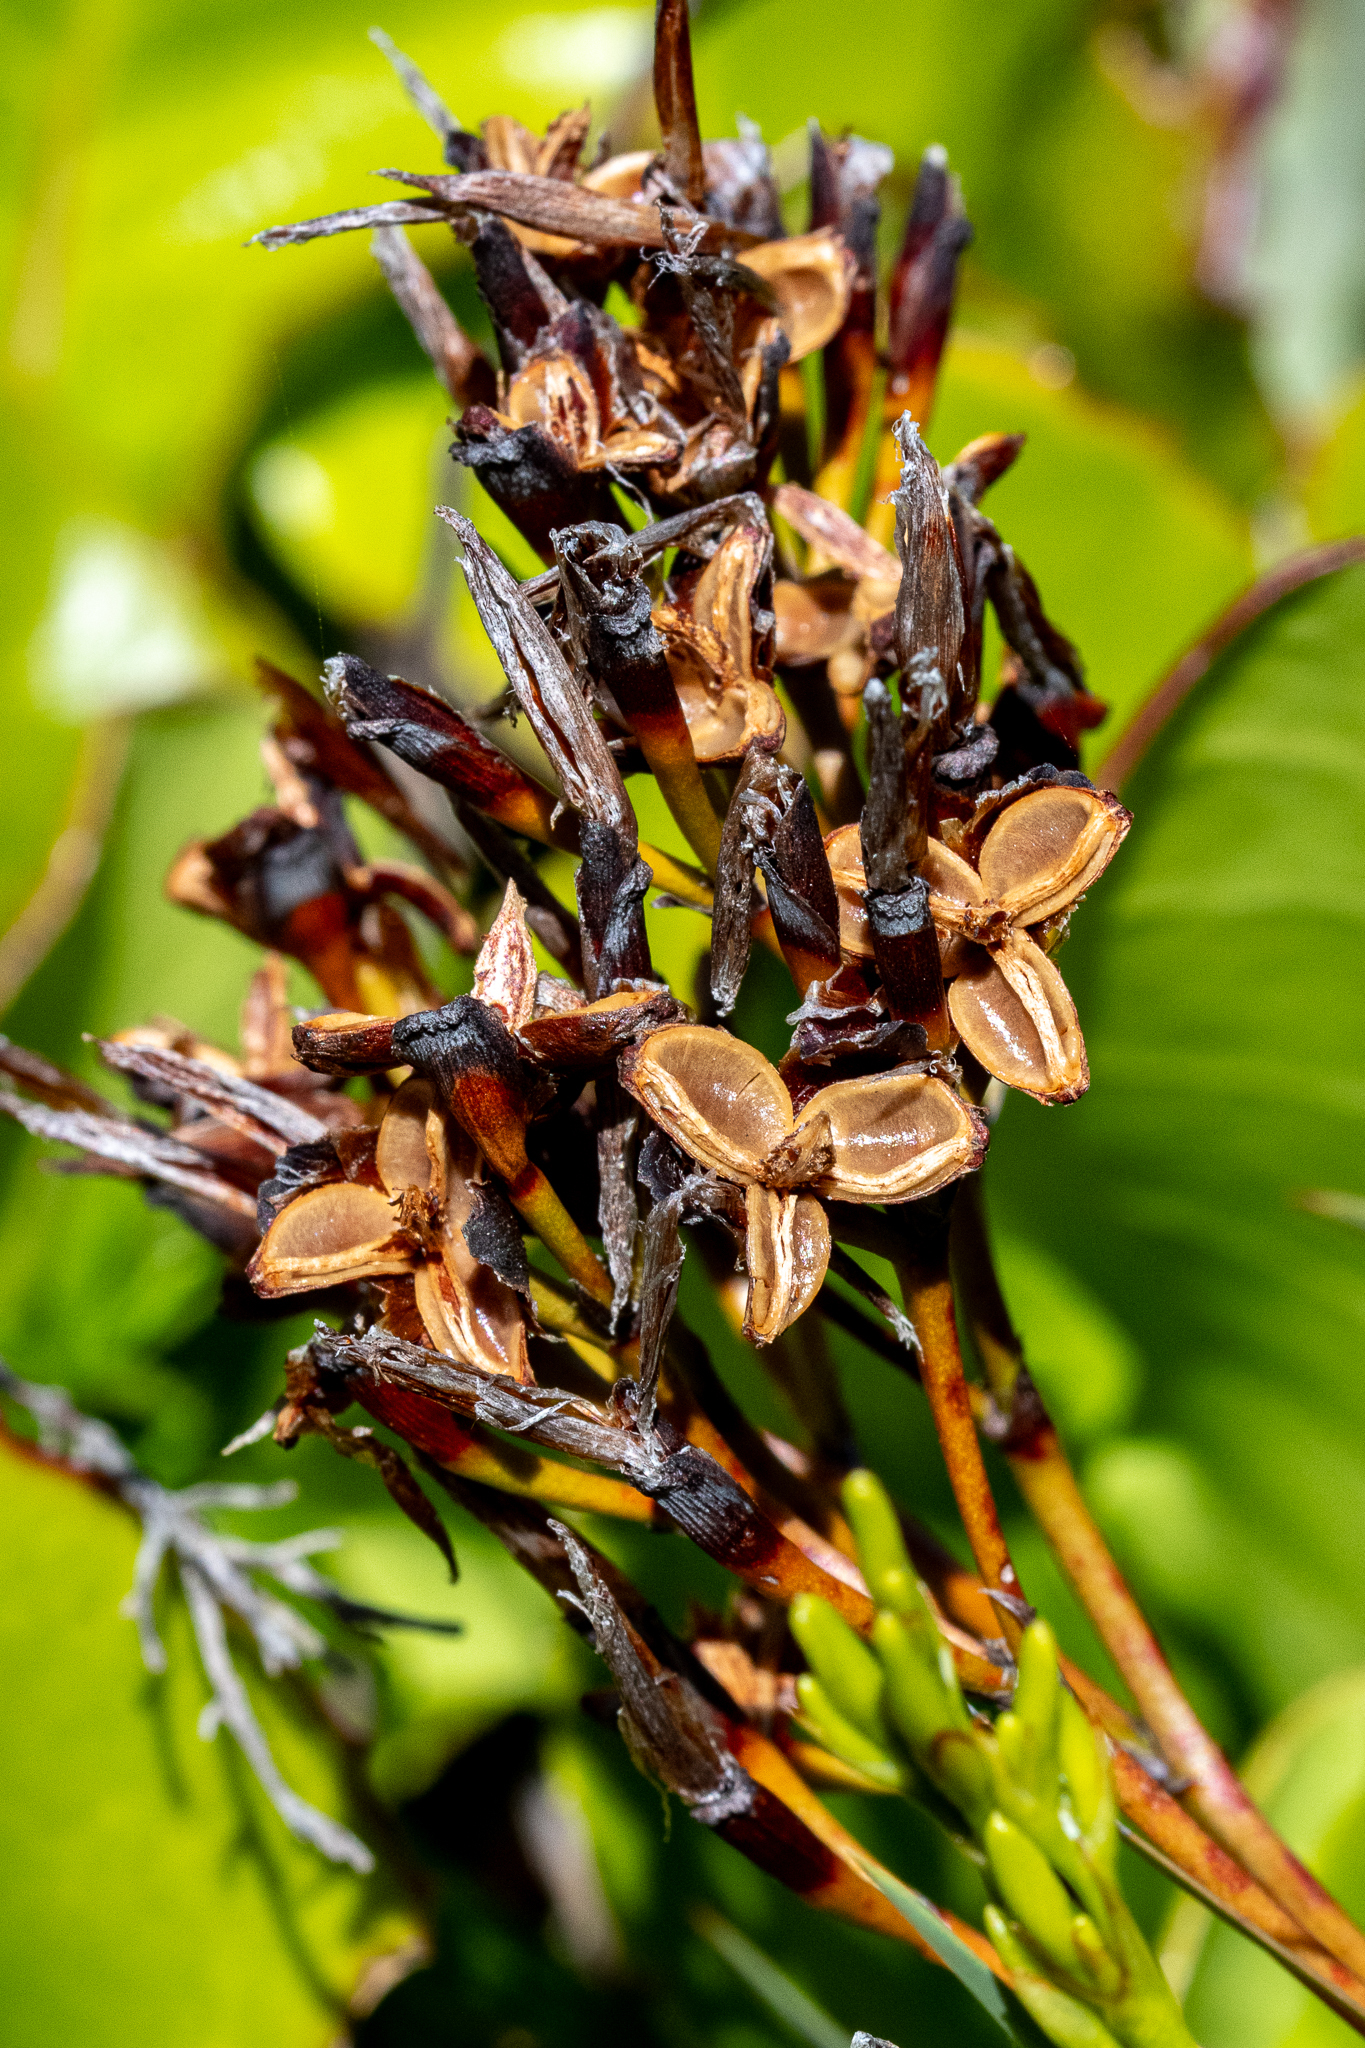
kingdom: Plantae
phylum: Tracheophyta
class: Liliopsida
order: Asparagales
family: Iridaceae
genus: Nivenia
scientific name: Nivenia stokoei
